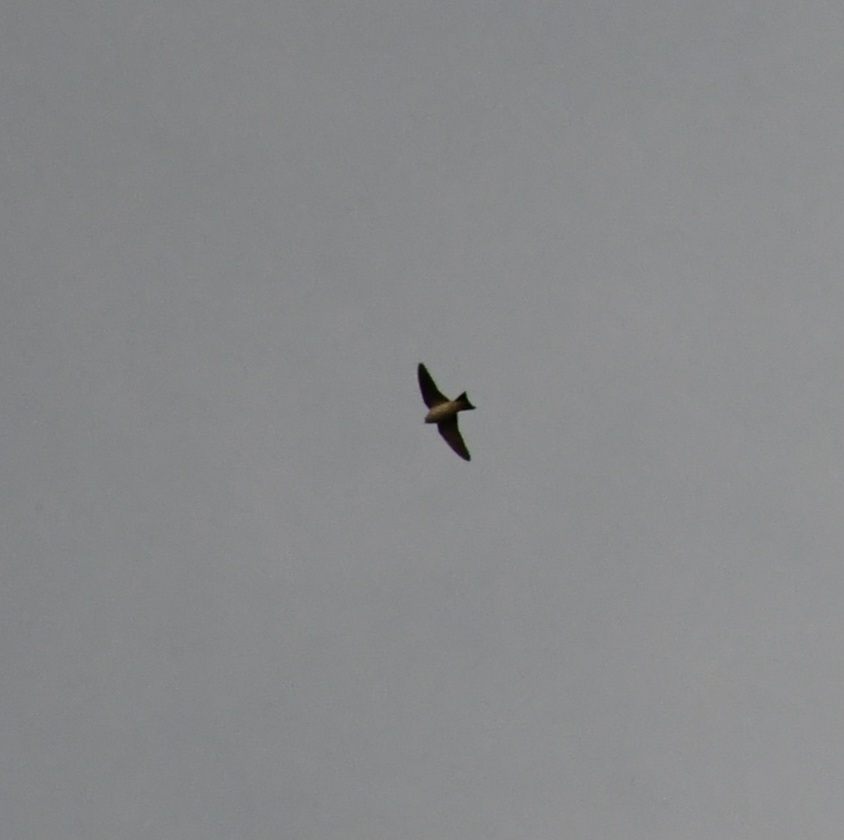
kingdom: Animalia
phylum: Chordata
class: Aves
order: Passeriformes
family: Hirundinidae
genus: Delichon
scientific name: Delichon urbicum
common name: Common house martin
